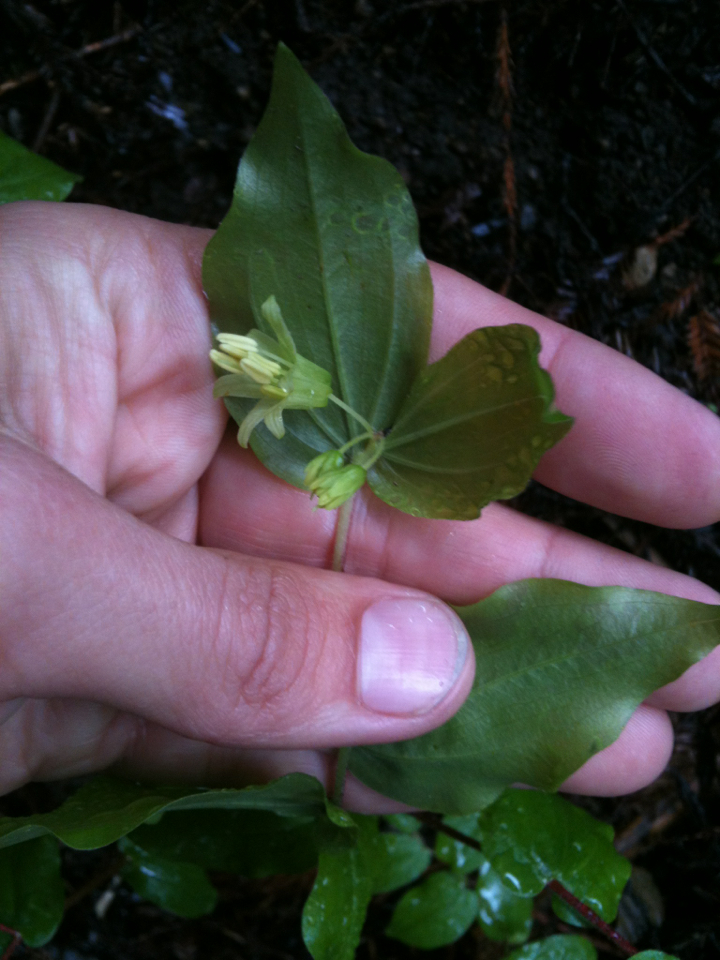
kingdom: Plantae
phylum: Tracheophyta
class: Liliopsida
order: Liliales
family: Liliaceae
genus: Prosartes
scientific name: Prosartes hookeri
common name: Fairy-bells
